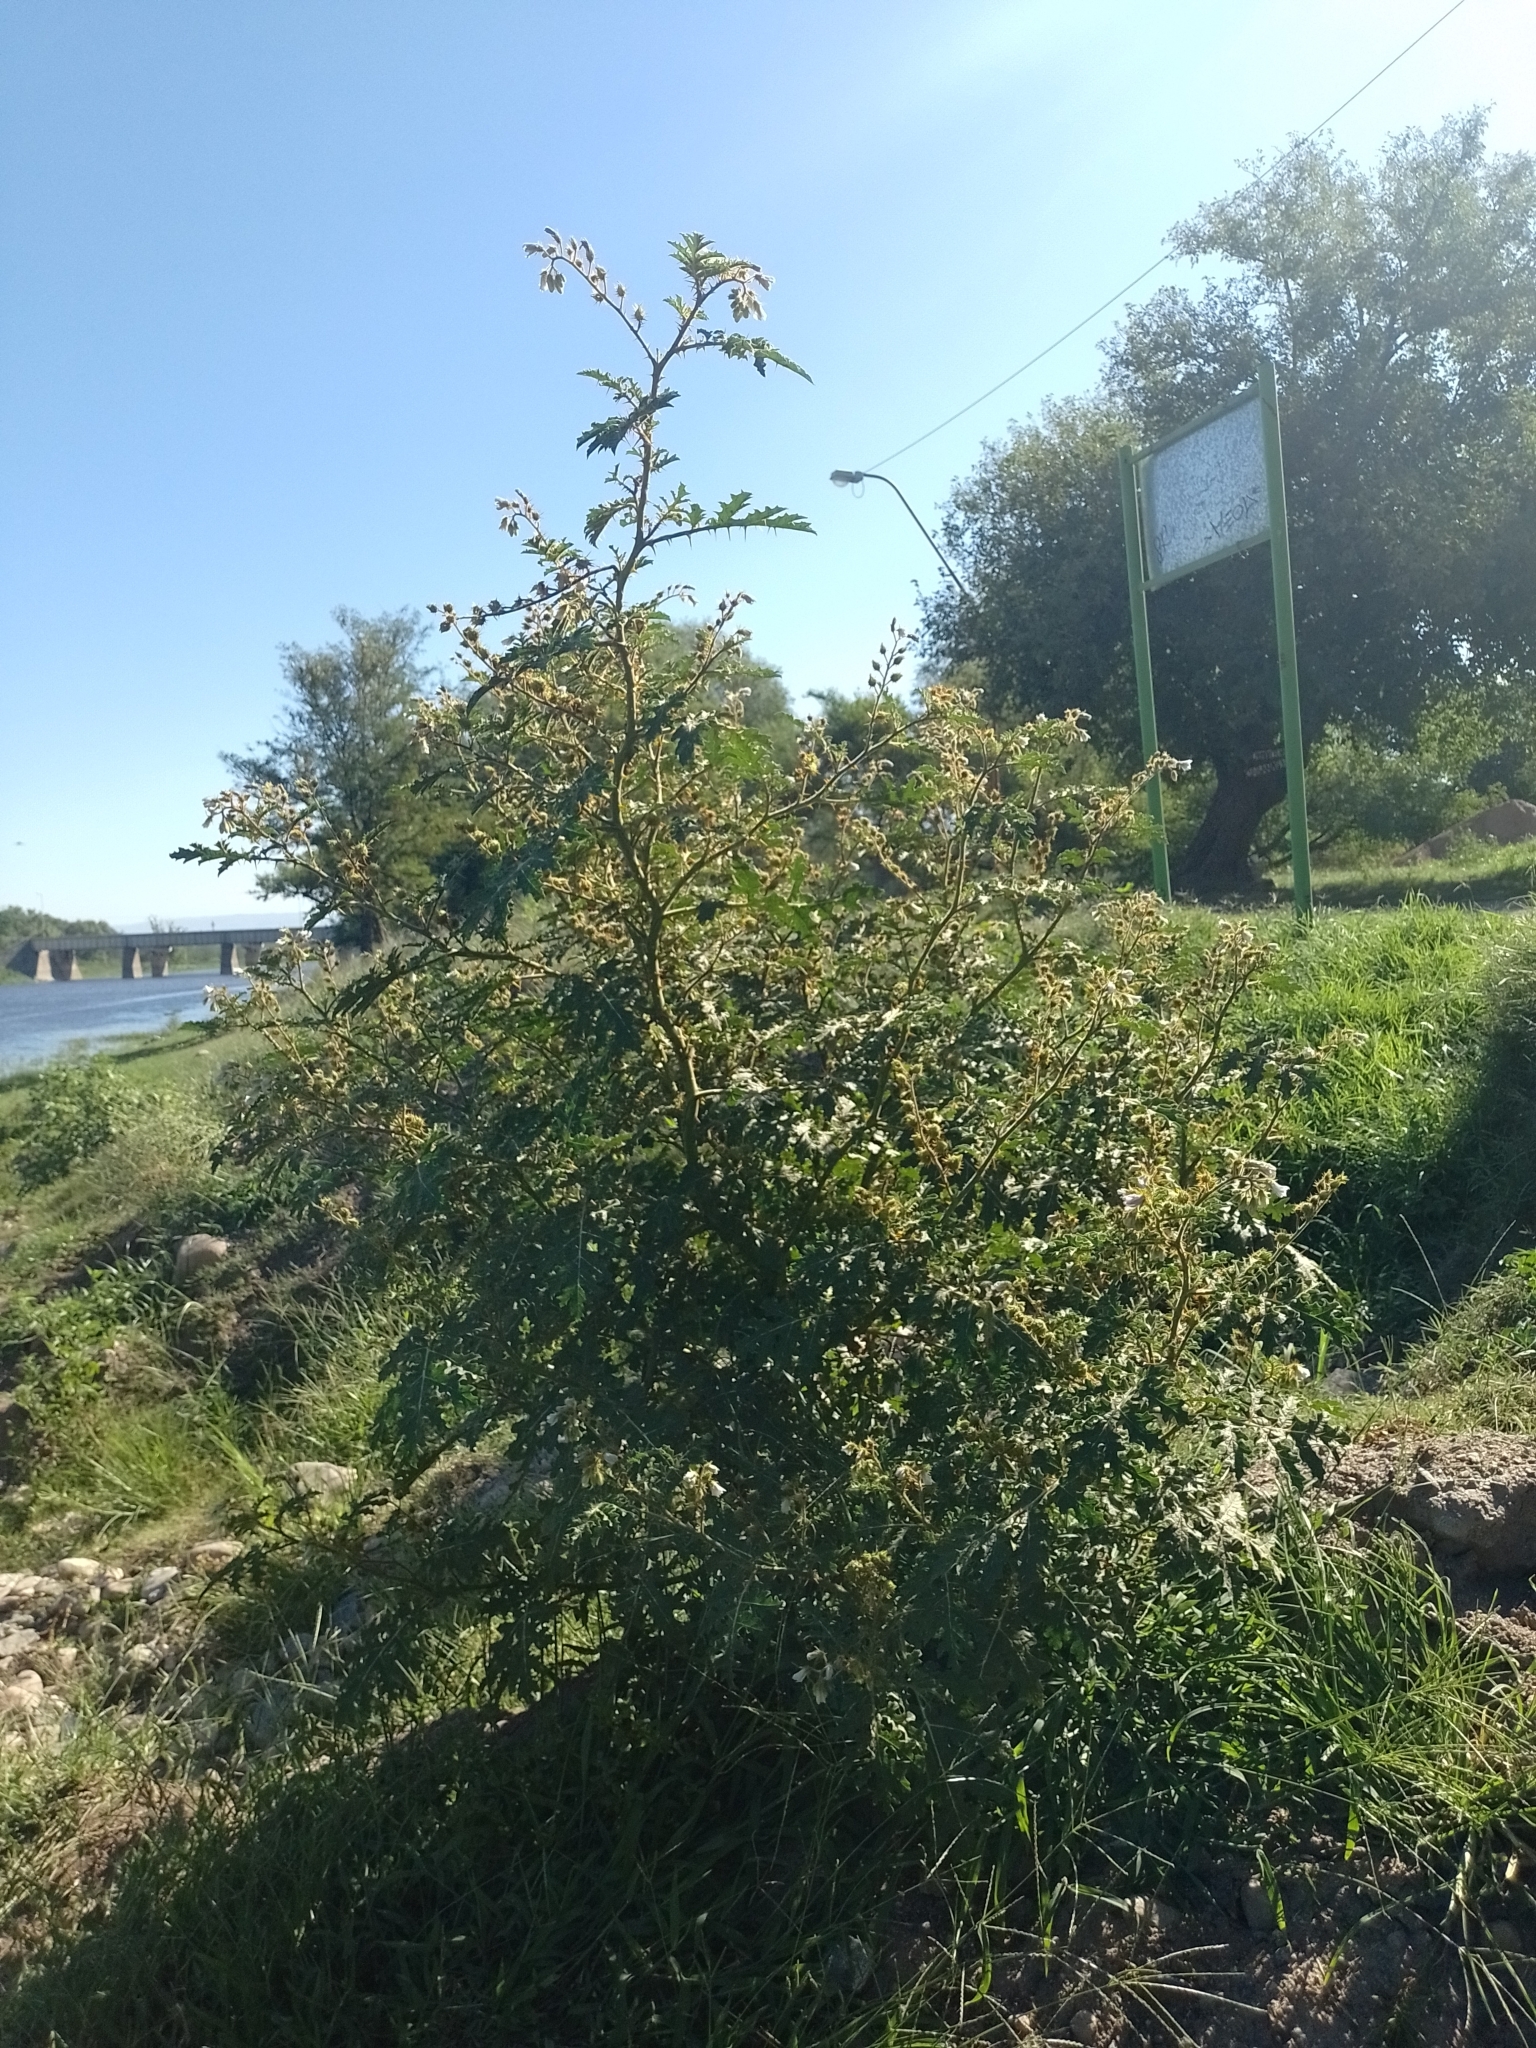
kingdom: Plantae
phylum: Tracheophyta
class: Magnoliopsida
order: Solanales
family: Solanaceae
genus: Solanum
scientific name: Solanum sisymbriifolium
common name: Red buffalo-bur
